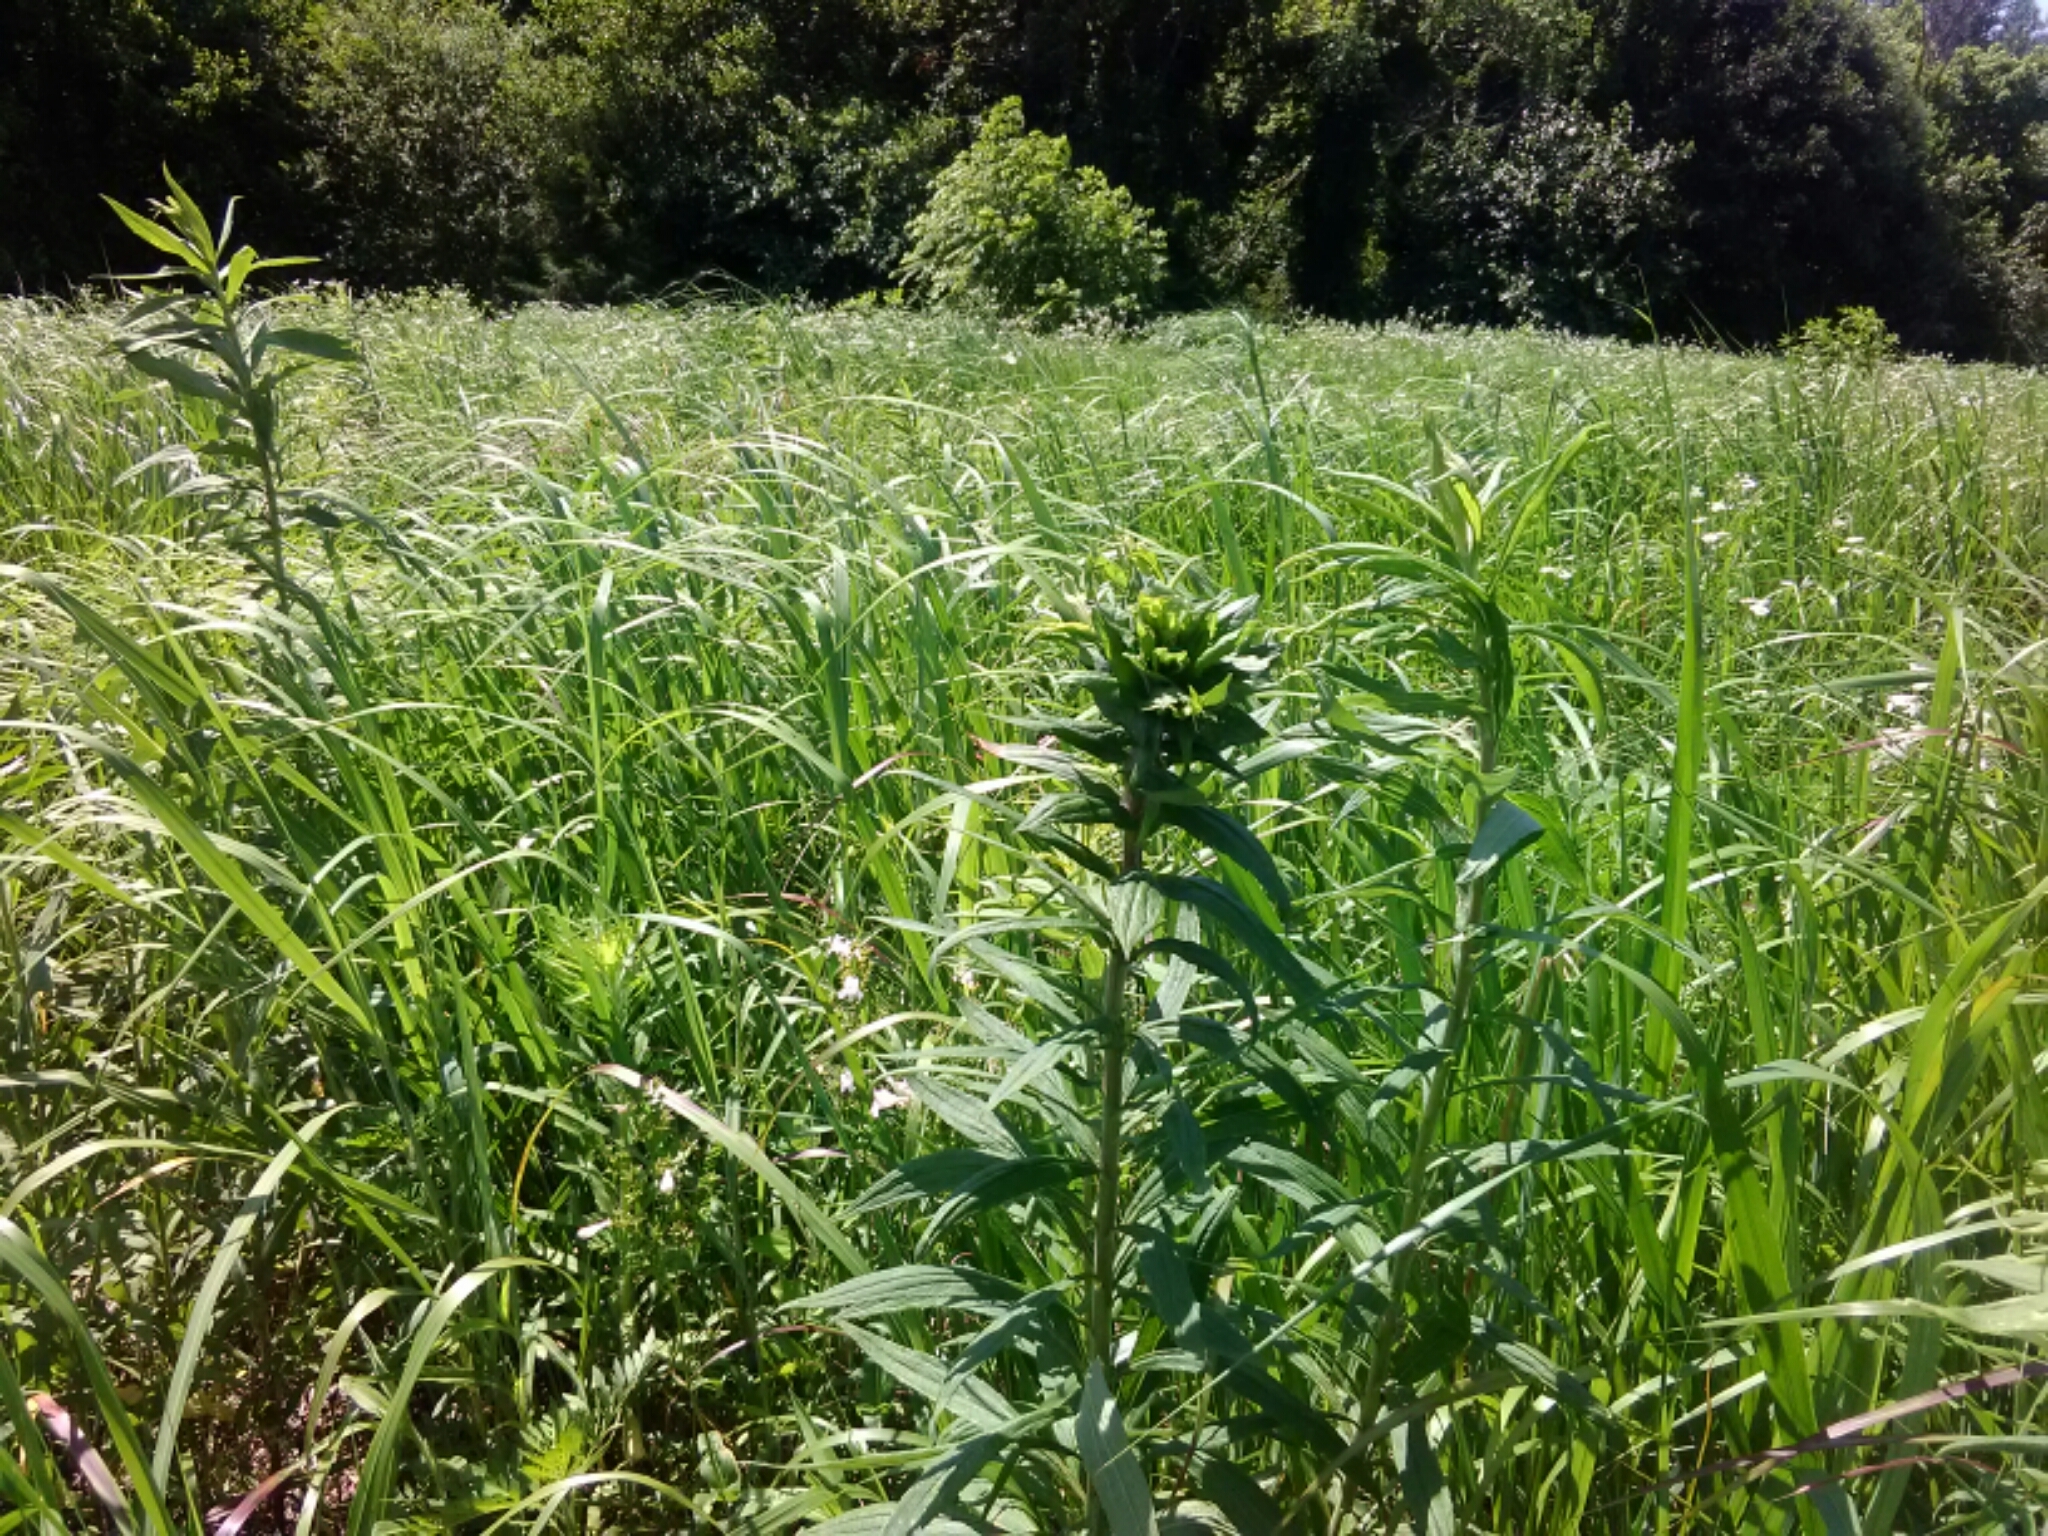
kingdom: Animalia
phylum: Arthropoda
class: Insecta
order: Diptera
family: Cecidomyiidae
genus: Rhopalomyia
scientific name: Rhopalomyia solidaginis
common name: Goldenrod bunch gall midge
